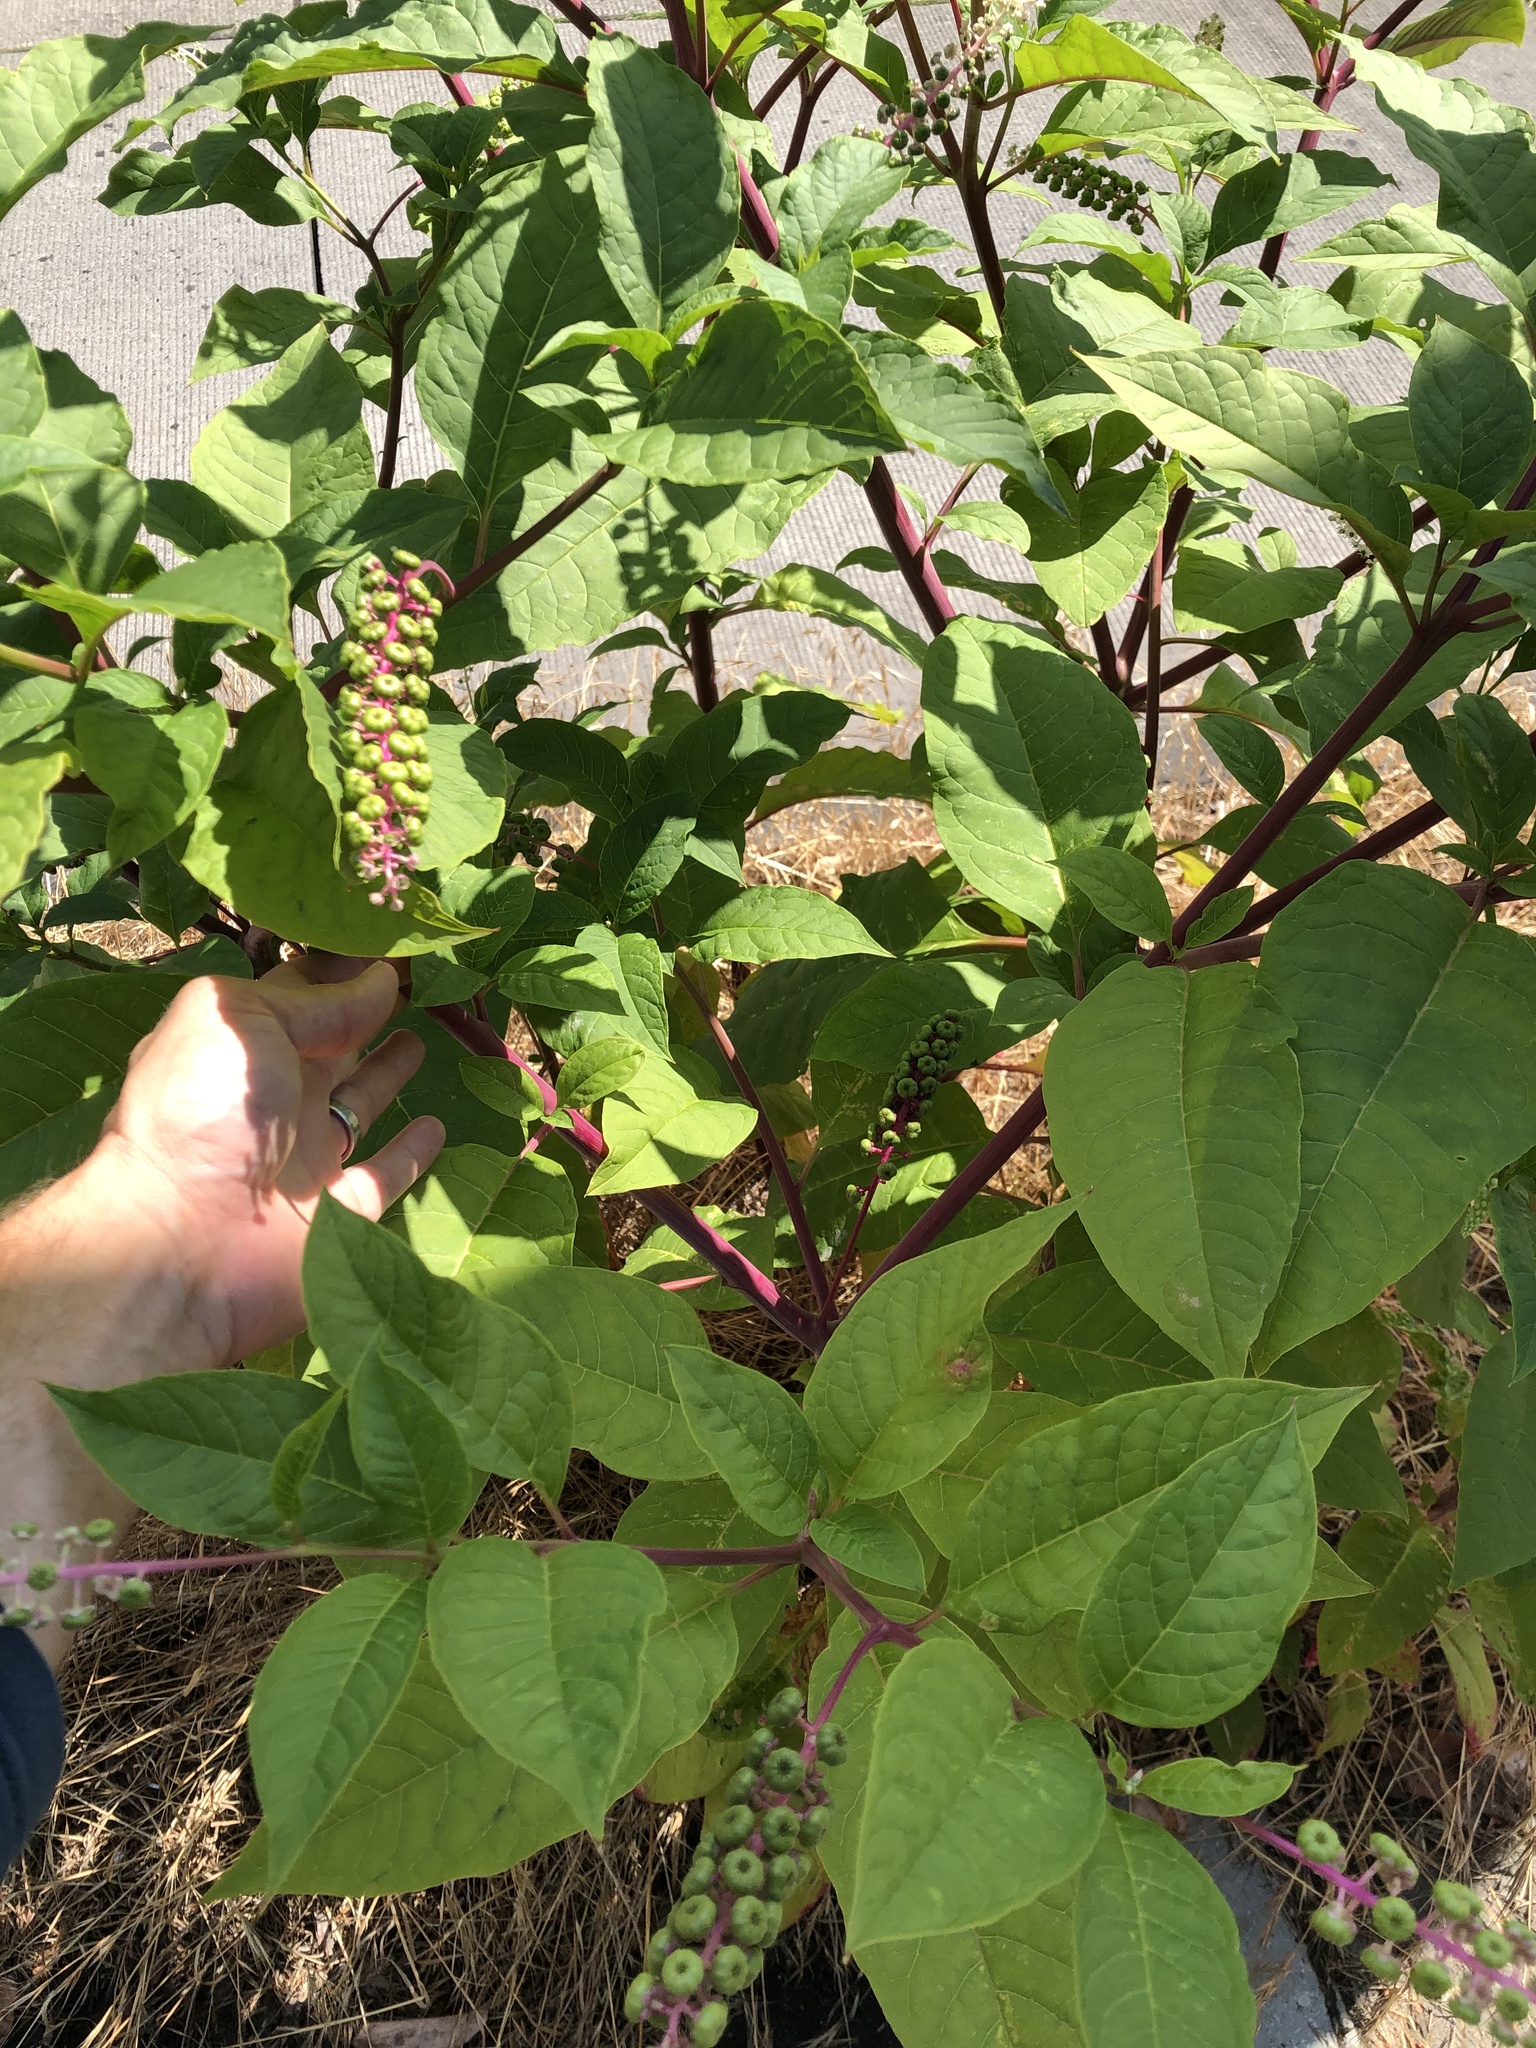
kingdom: Plantae
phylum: Tracheophyta
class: Magnoliopsida
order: Caryophyllales
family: Phytolaccaceae
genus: Phytolacca
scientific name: Phytolacca americana
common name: American pokeweed
